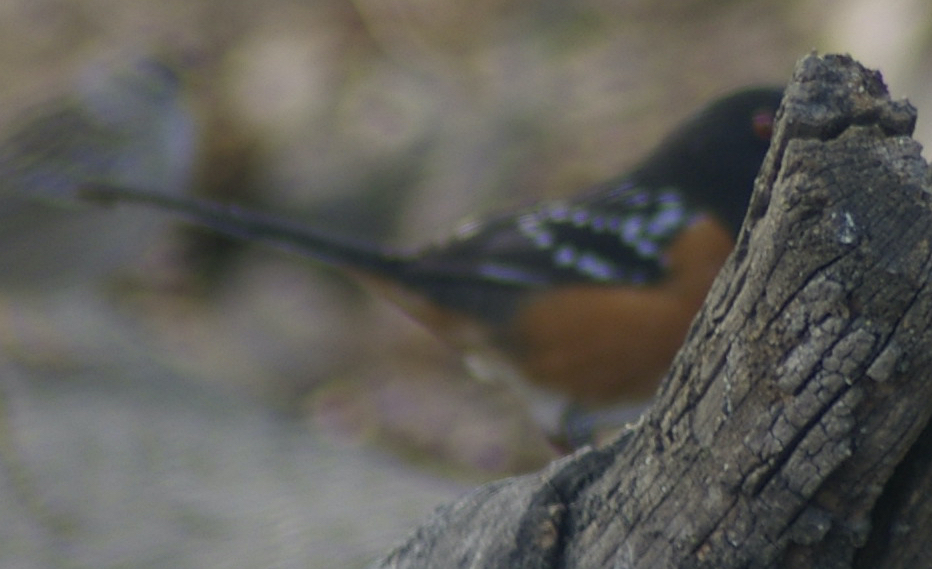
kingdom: Animalia
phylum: Chordata
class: Aves
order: Passeriformes
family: Passerellidae
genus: Pipilo
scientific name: Pipilo maculatus
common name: Spotted towhee
